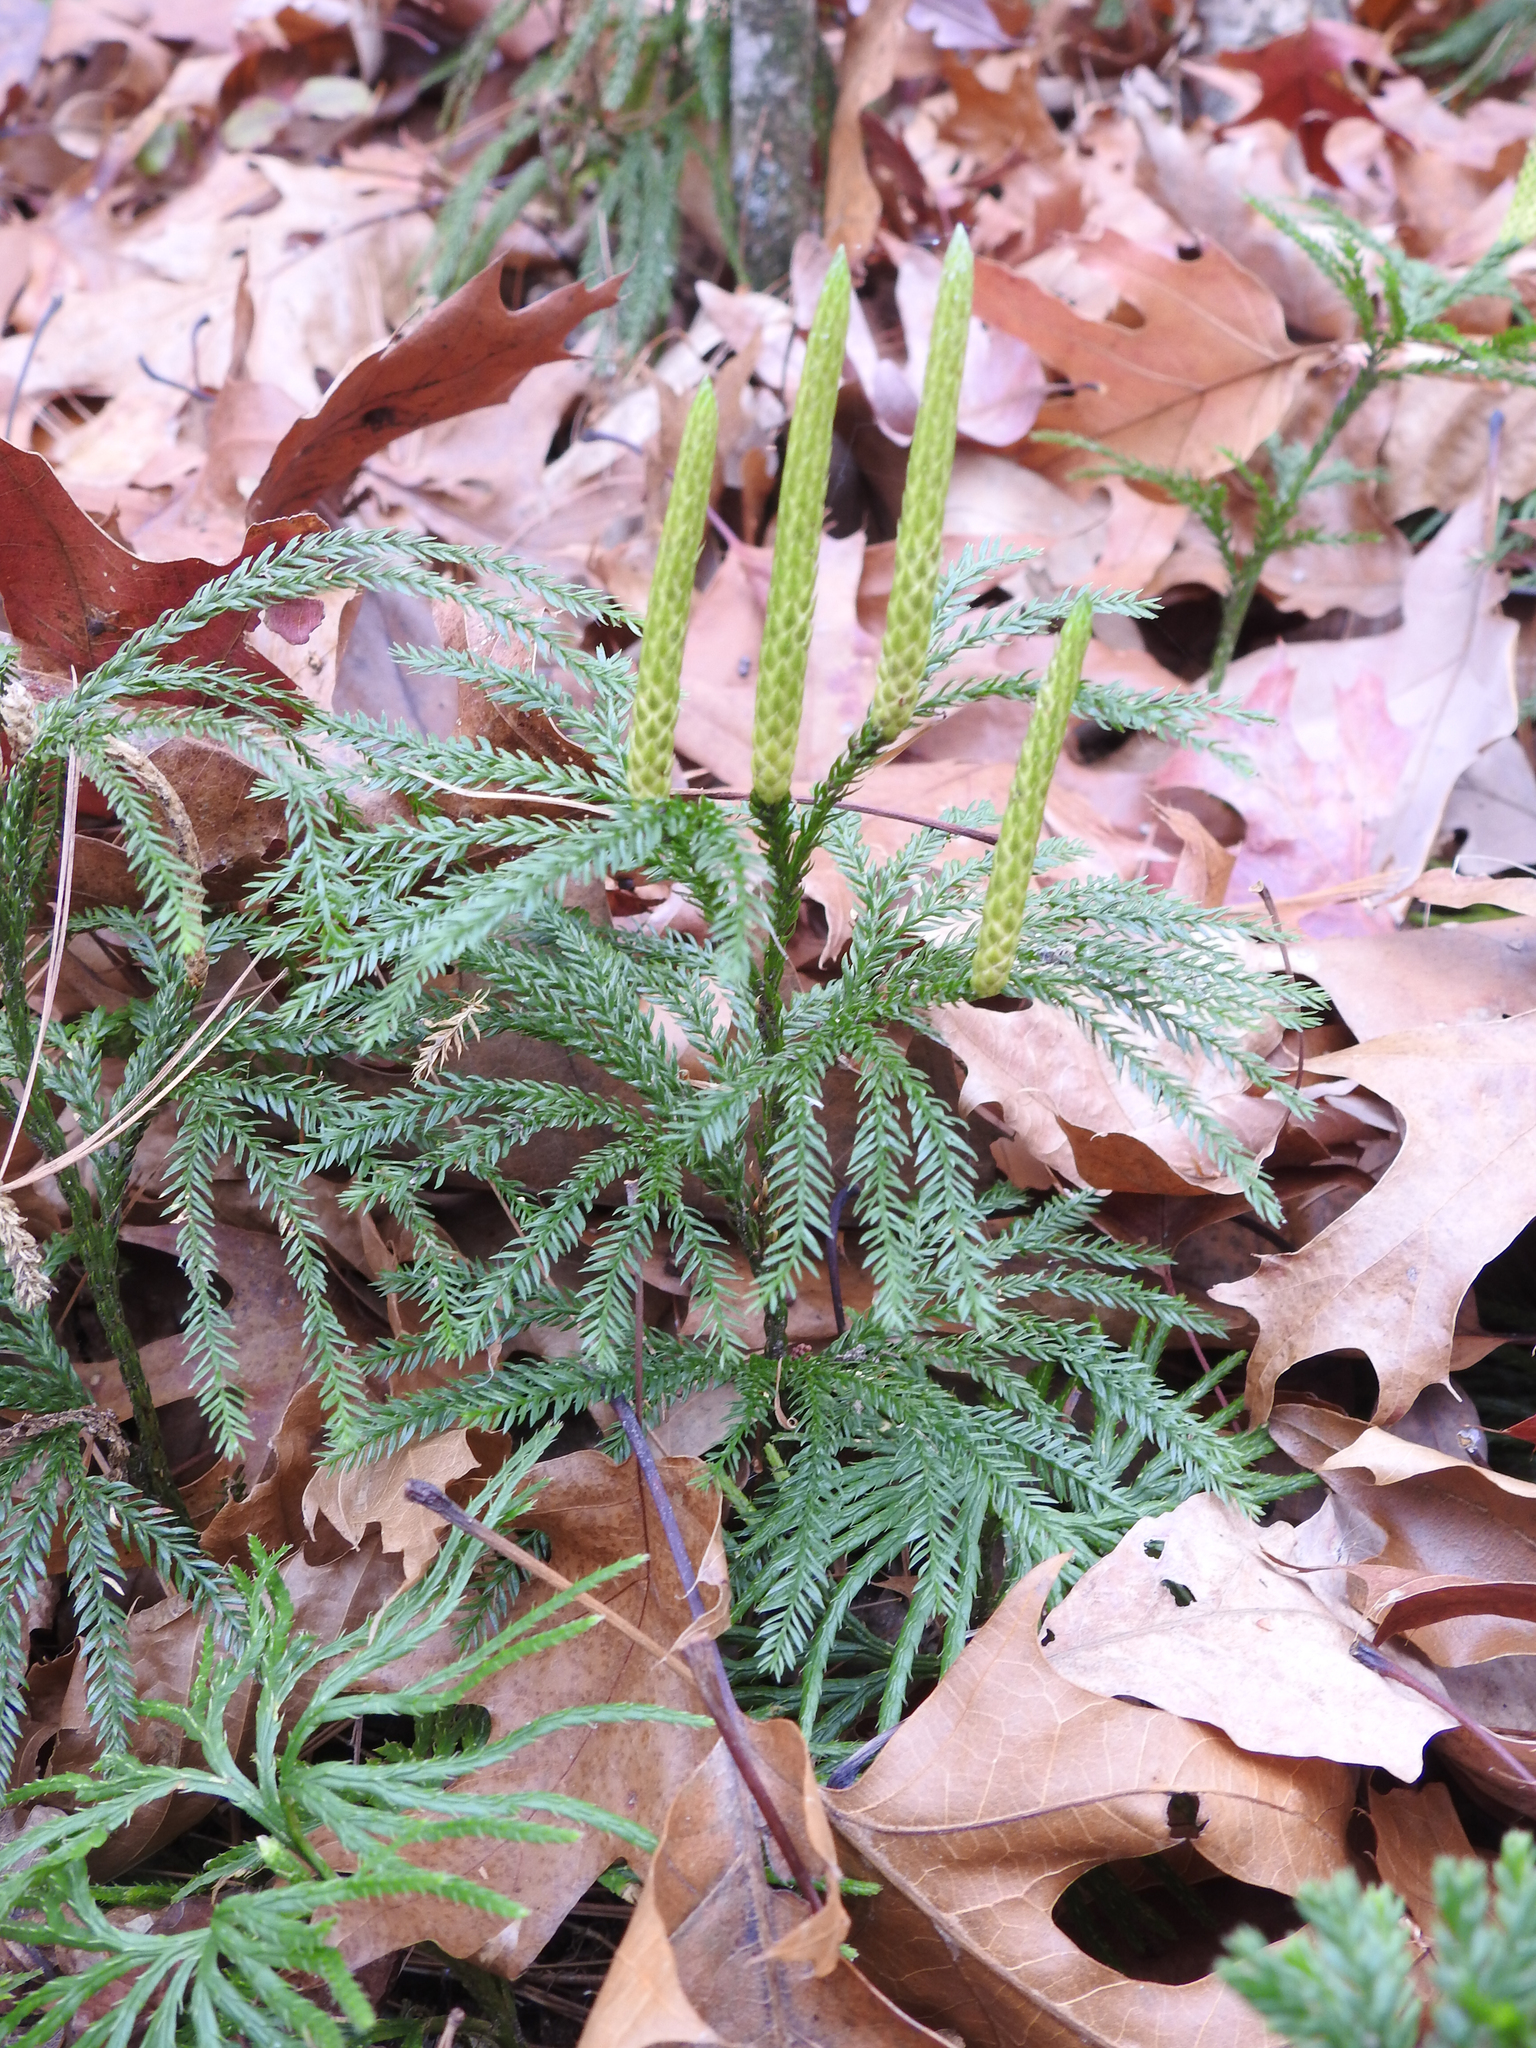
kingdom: Plantae
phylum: Tracheophyta
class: Lycopodiopsida
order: Lycopodiales
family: Lycopodiaceae
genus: Dendrolycopodium
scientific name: Dendrolycopodium obscurum
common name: Common ground-pine
